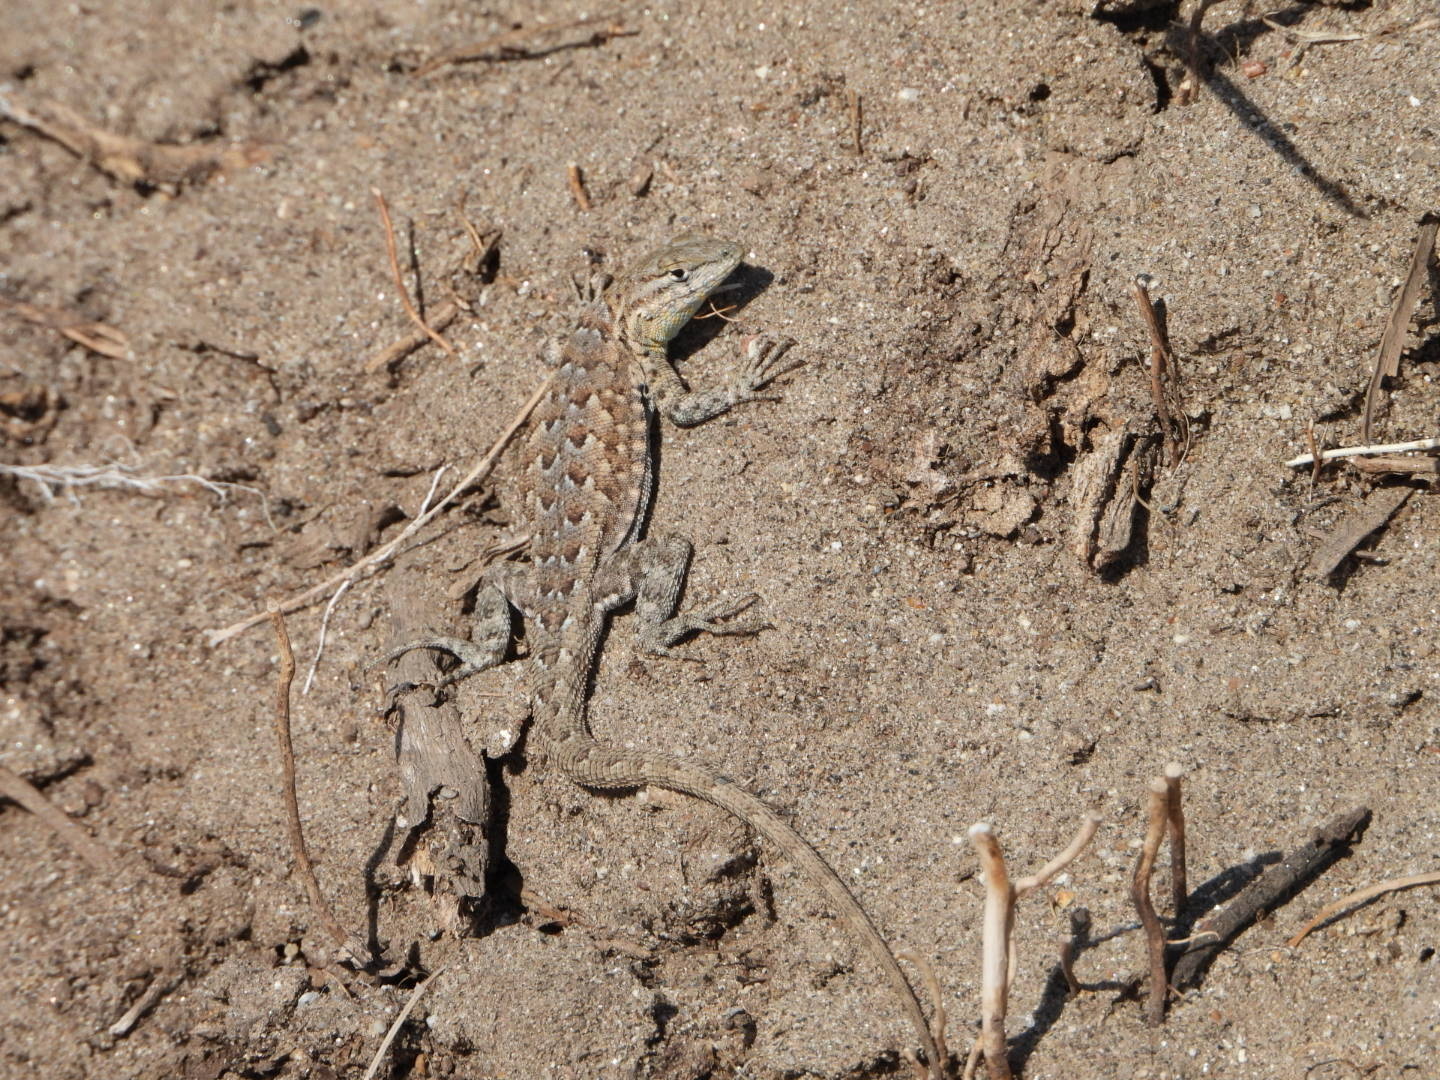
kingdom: Animalia
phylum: Chordata
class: Squamata
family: Phrynosomatidae
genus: Uta
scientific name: Uta stansburiana
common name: Side-blotched lizard
